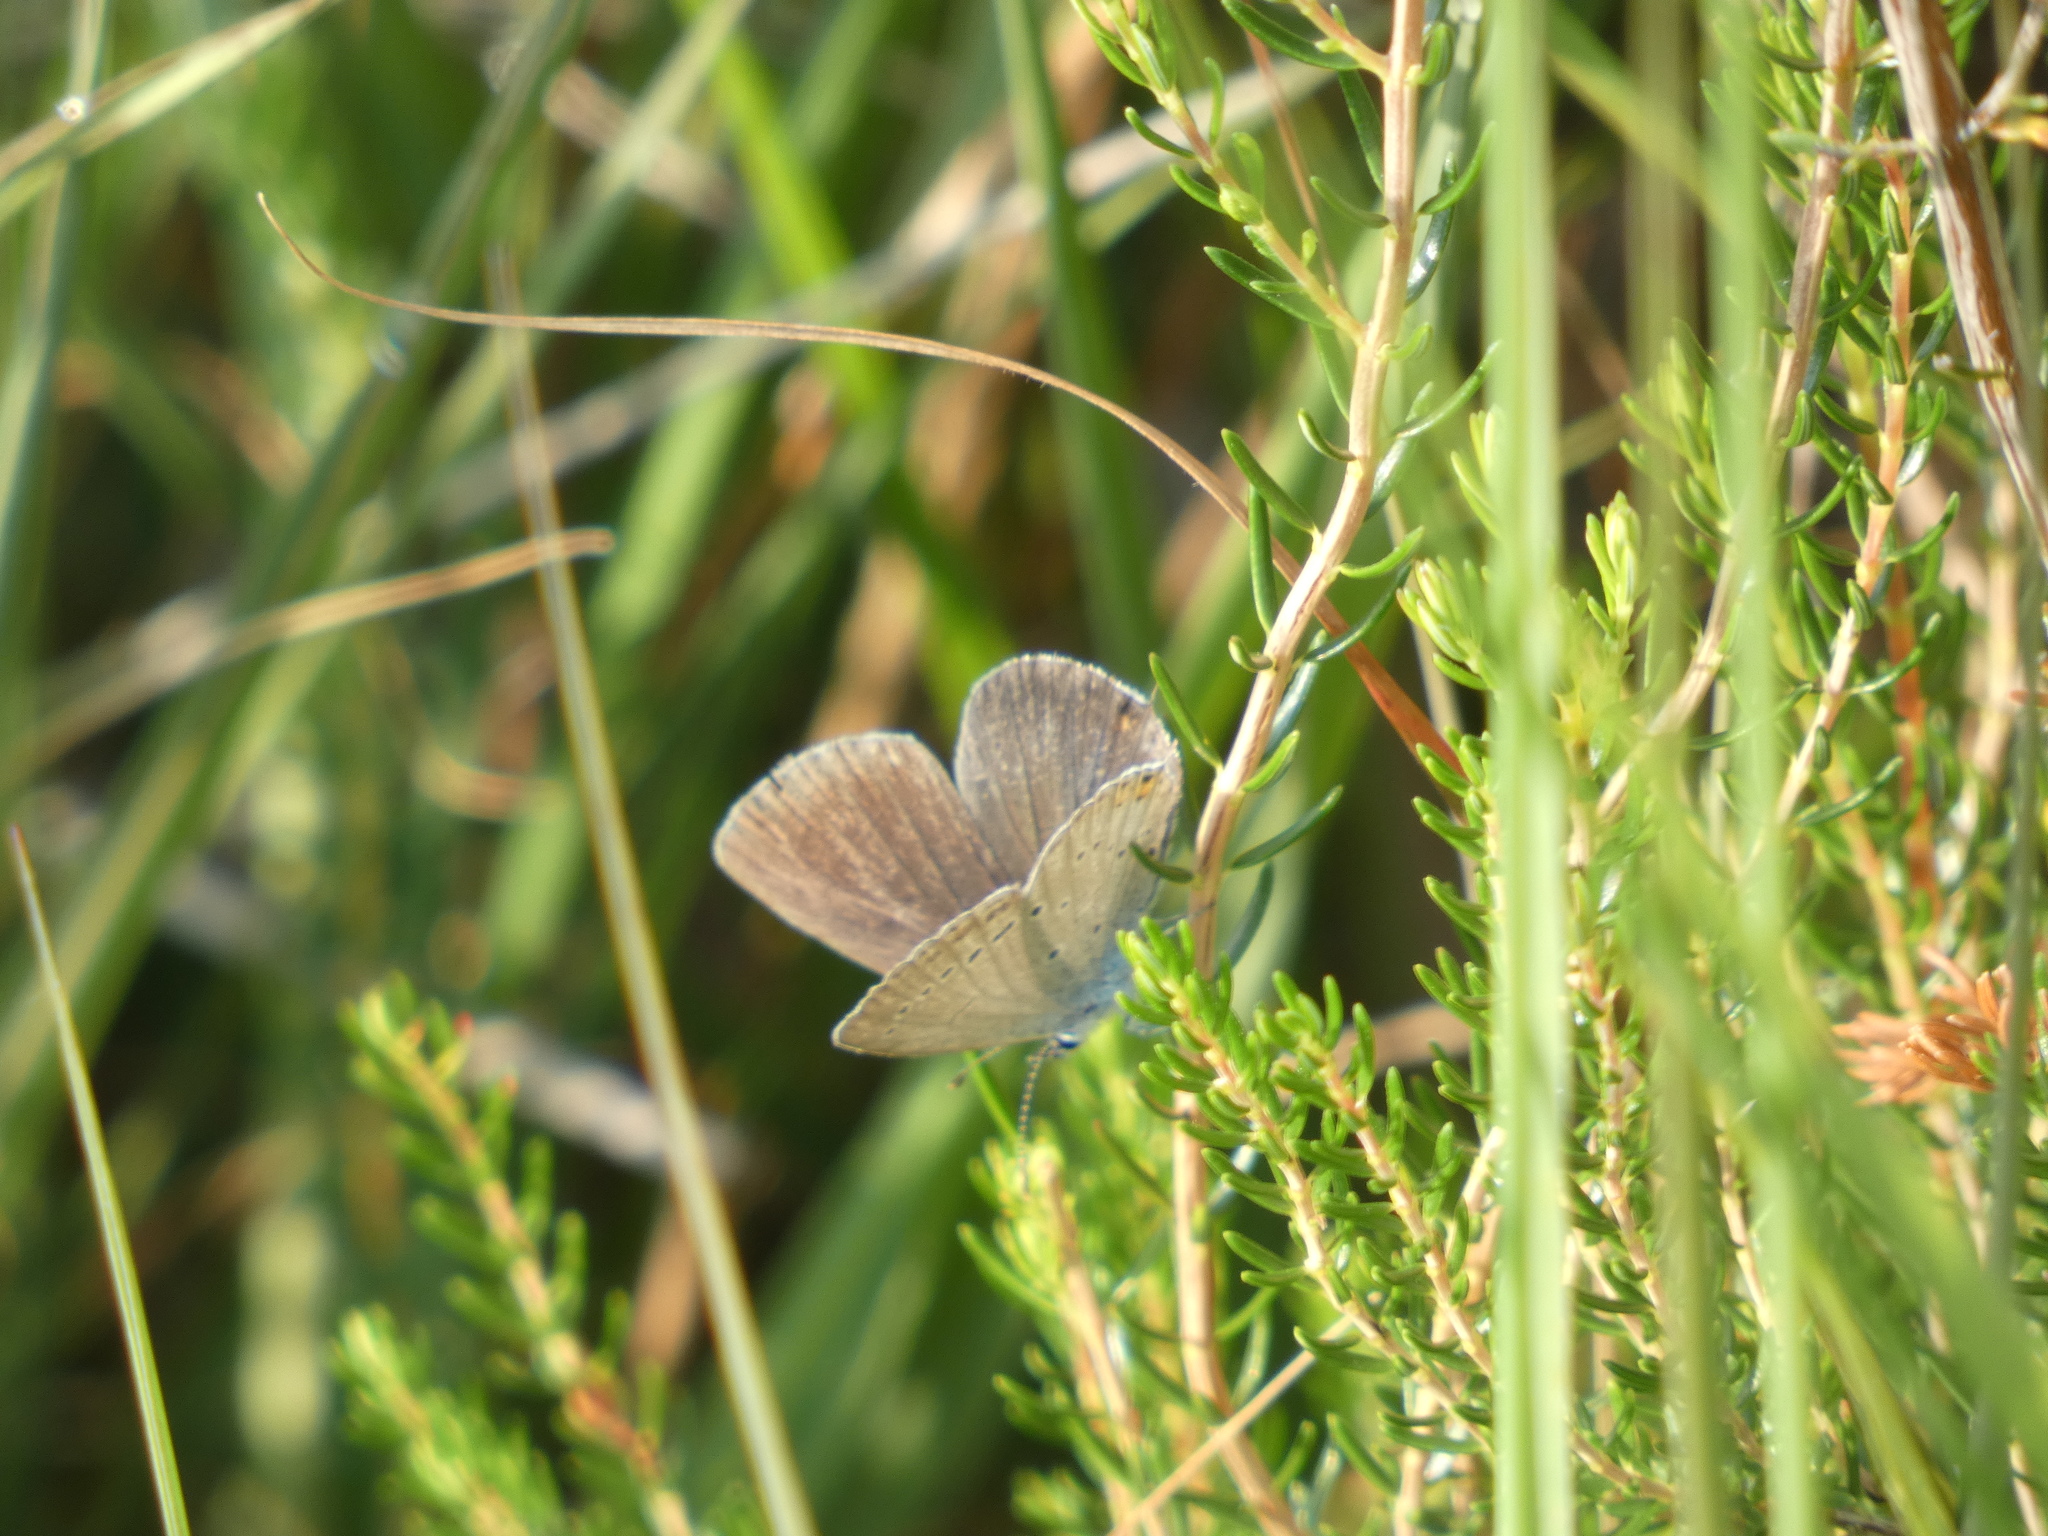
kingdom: Animalia
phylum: Arthropoda
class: Insecta
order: Lepidoptera
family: Lycaenidae
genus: Elkalyce
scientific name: Elkalyce argiades
